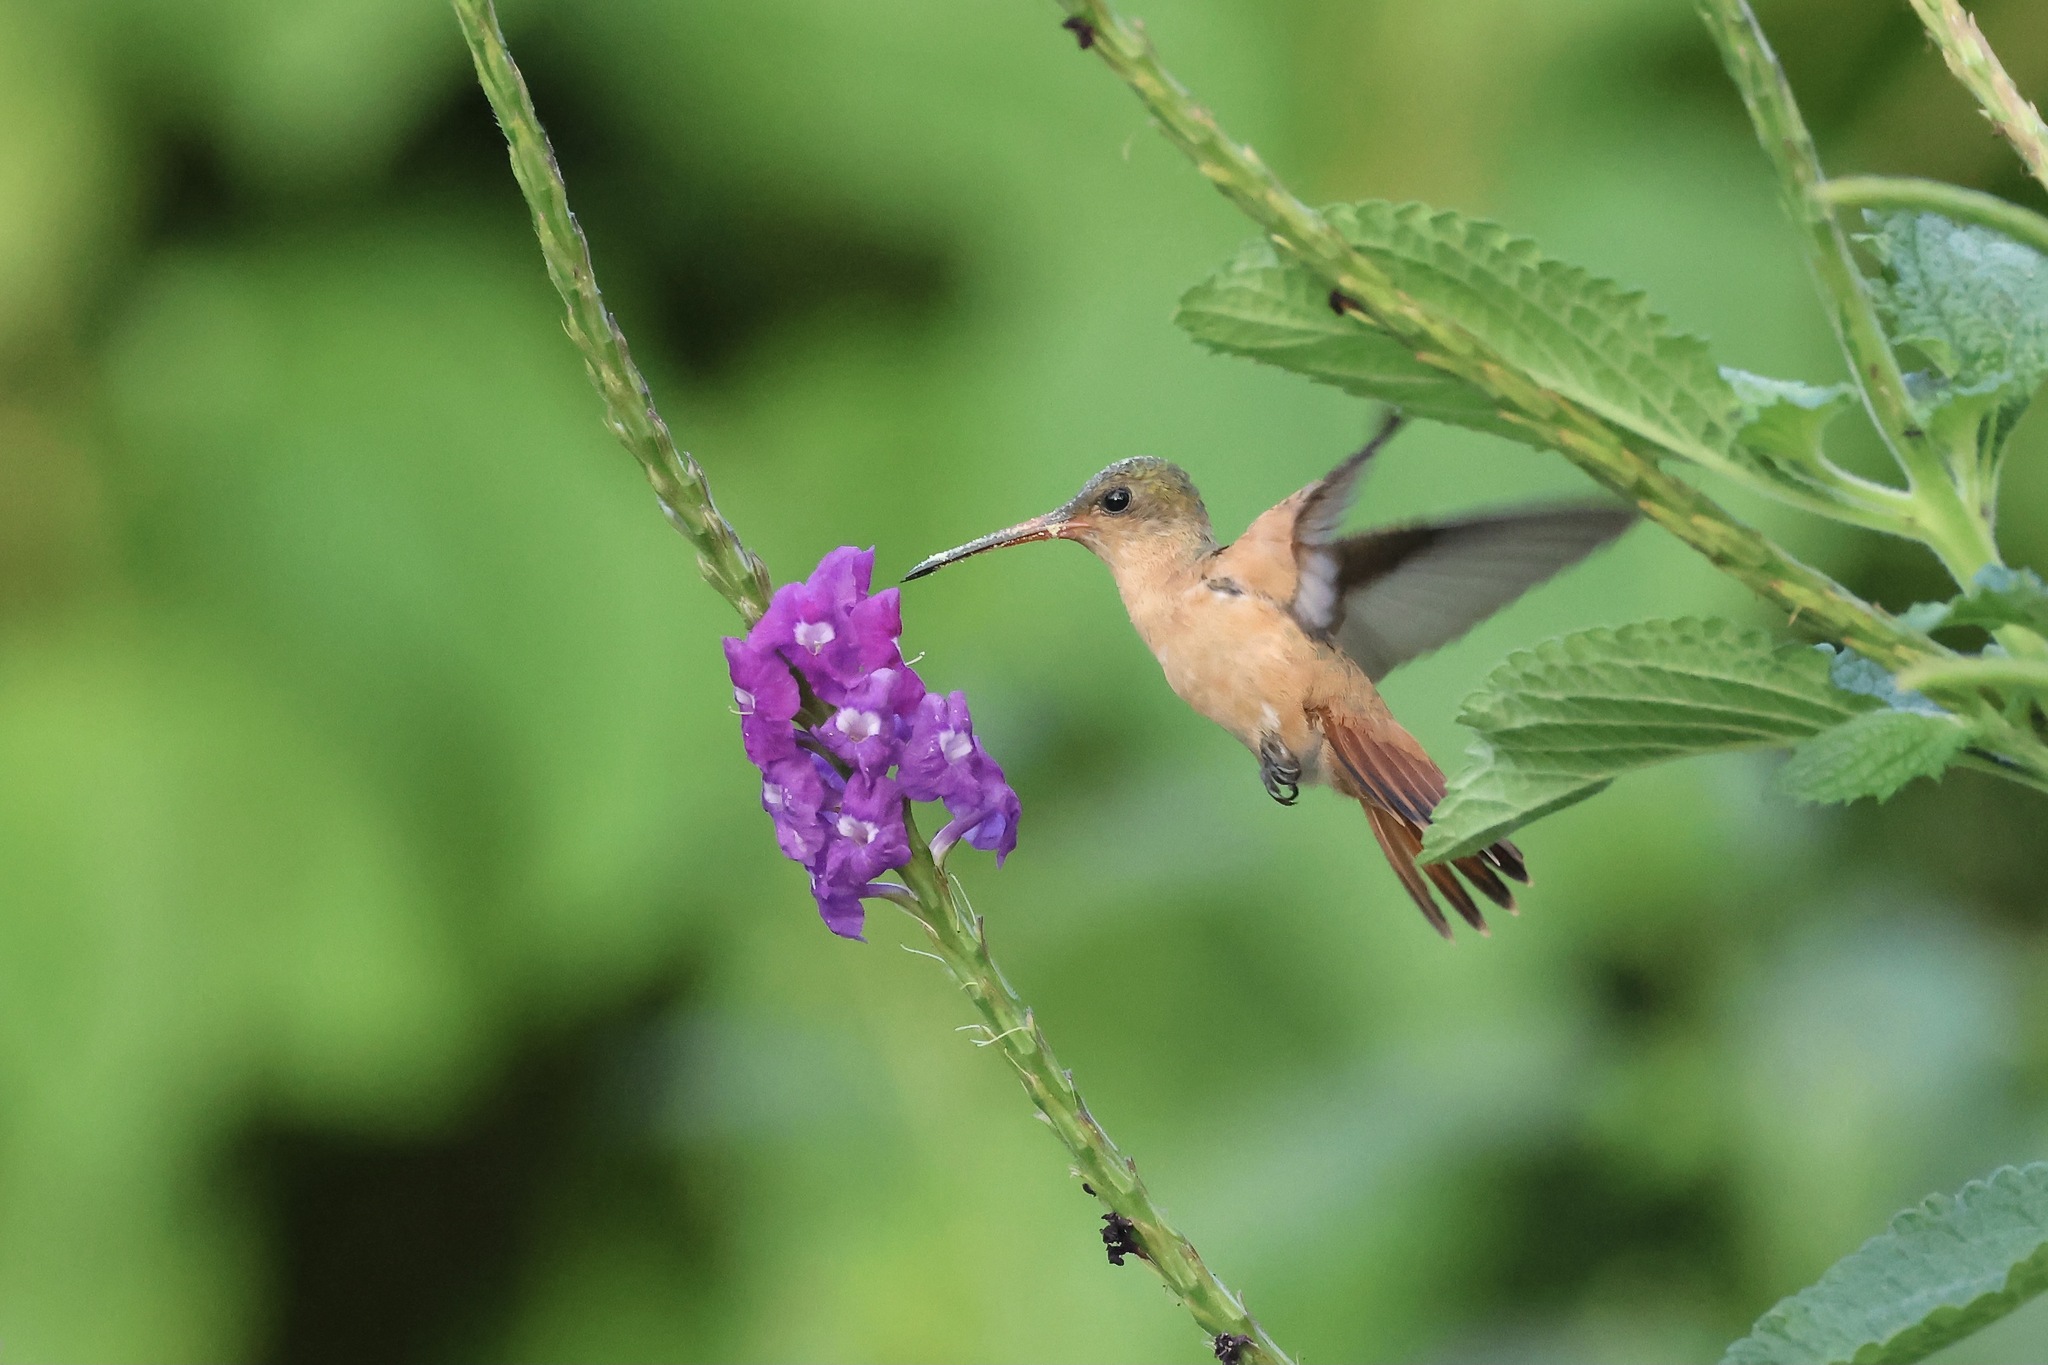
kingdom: Animalia
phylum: Chordata
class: Aves
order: Apodiformes
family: Trochilidae
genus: Amazilia
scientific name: Amazilia rutila
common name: Cinnamon hummingbird
